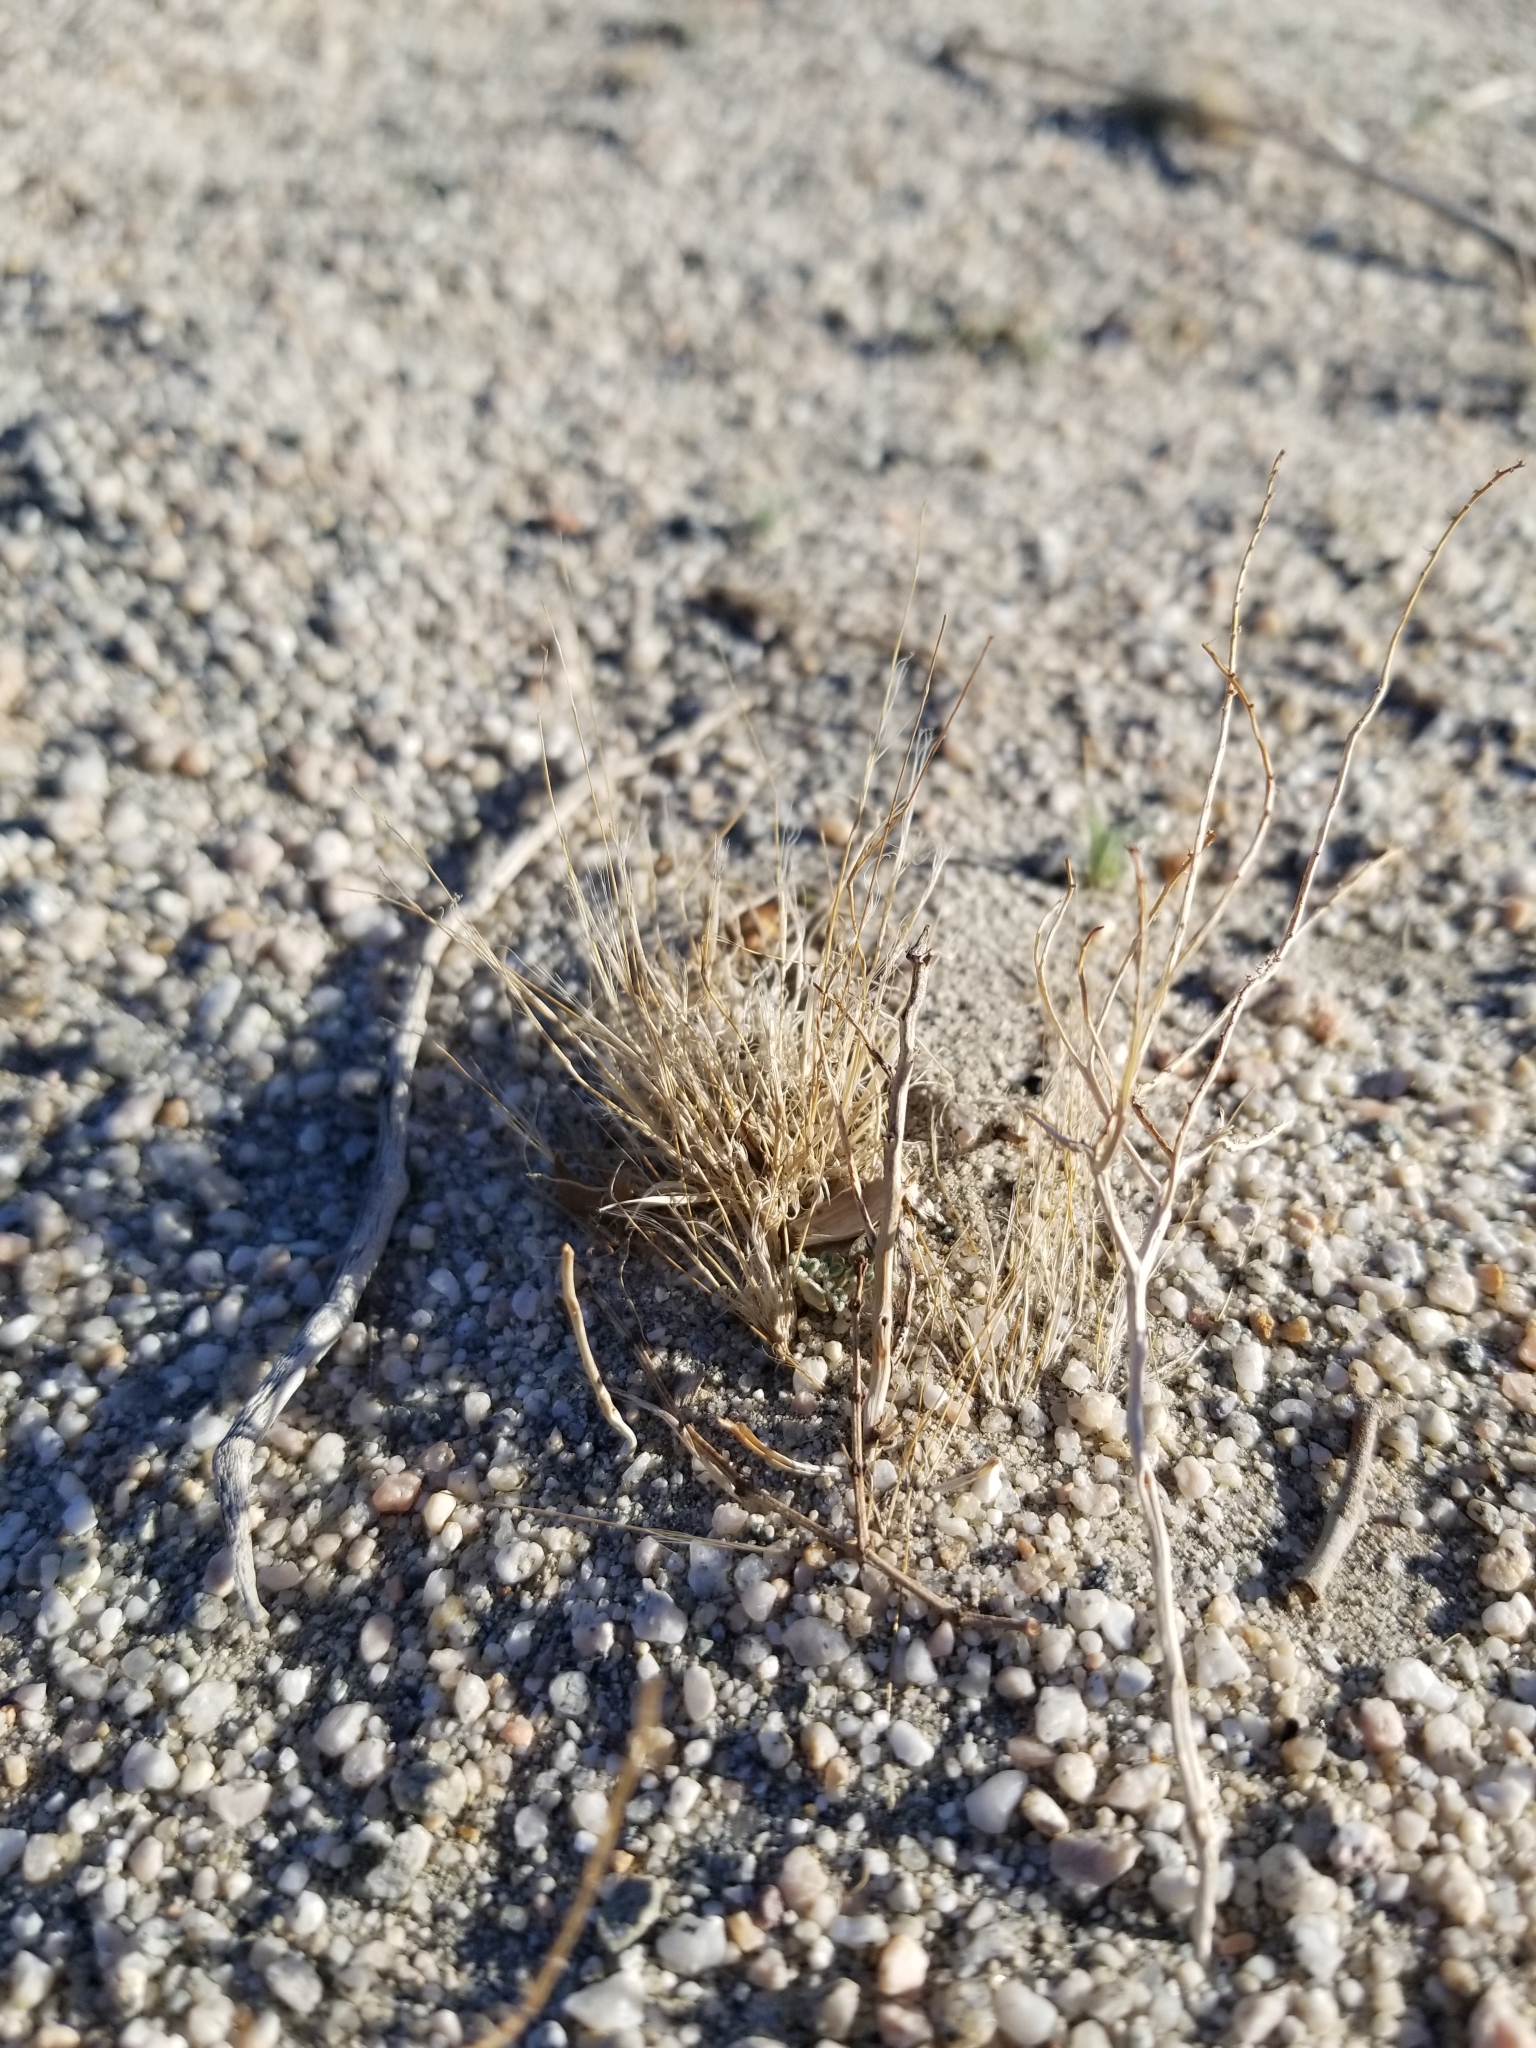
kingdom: Plantae
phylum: Tracheophyta
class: Liliopsida
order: Poales
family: Poaceae
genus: Schismus
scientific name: Schismus barbatus
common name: Kelch-grass
